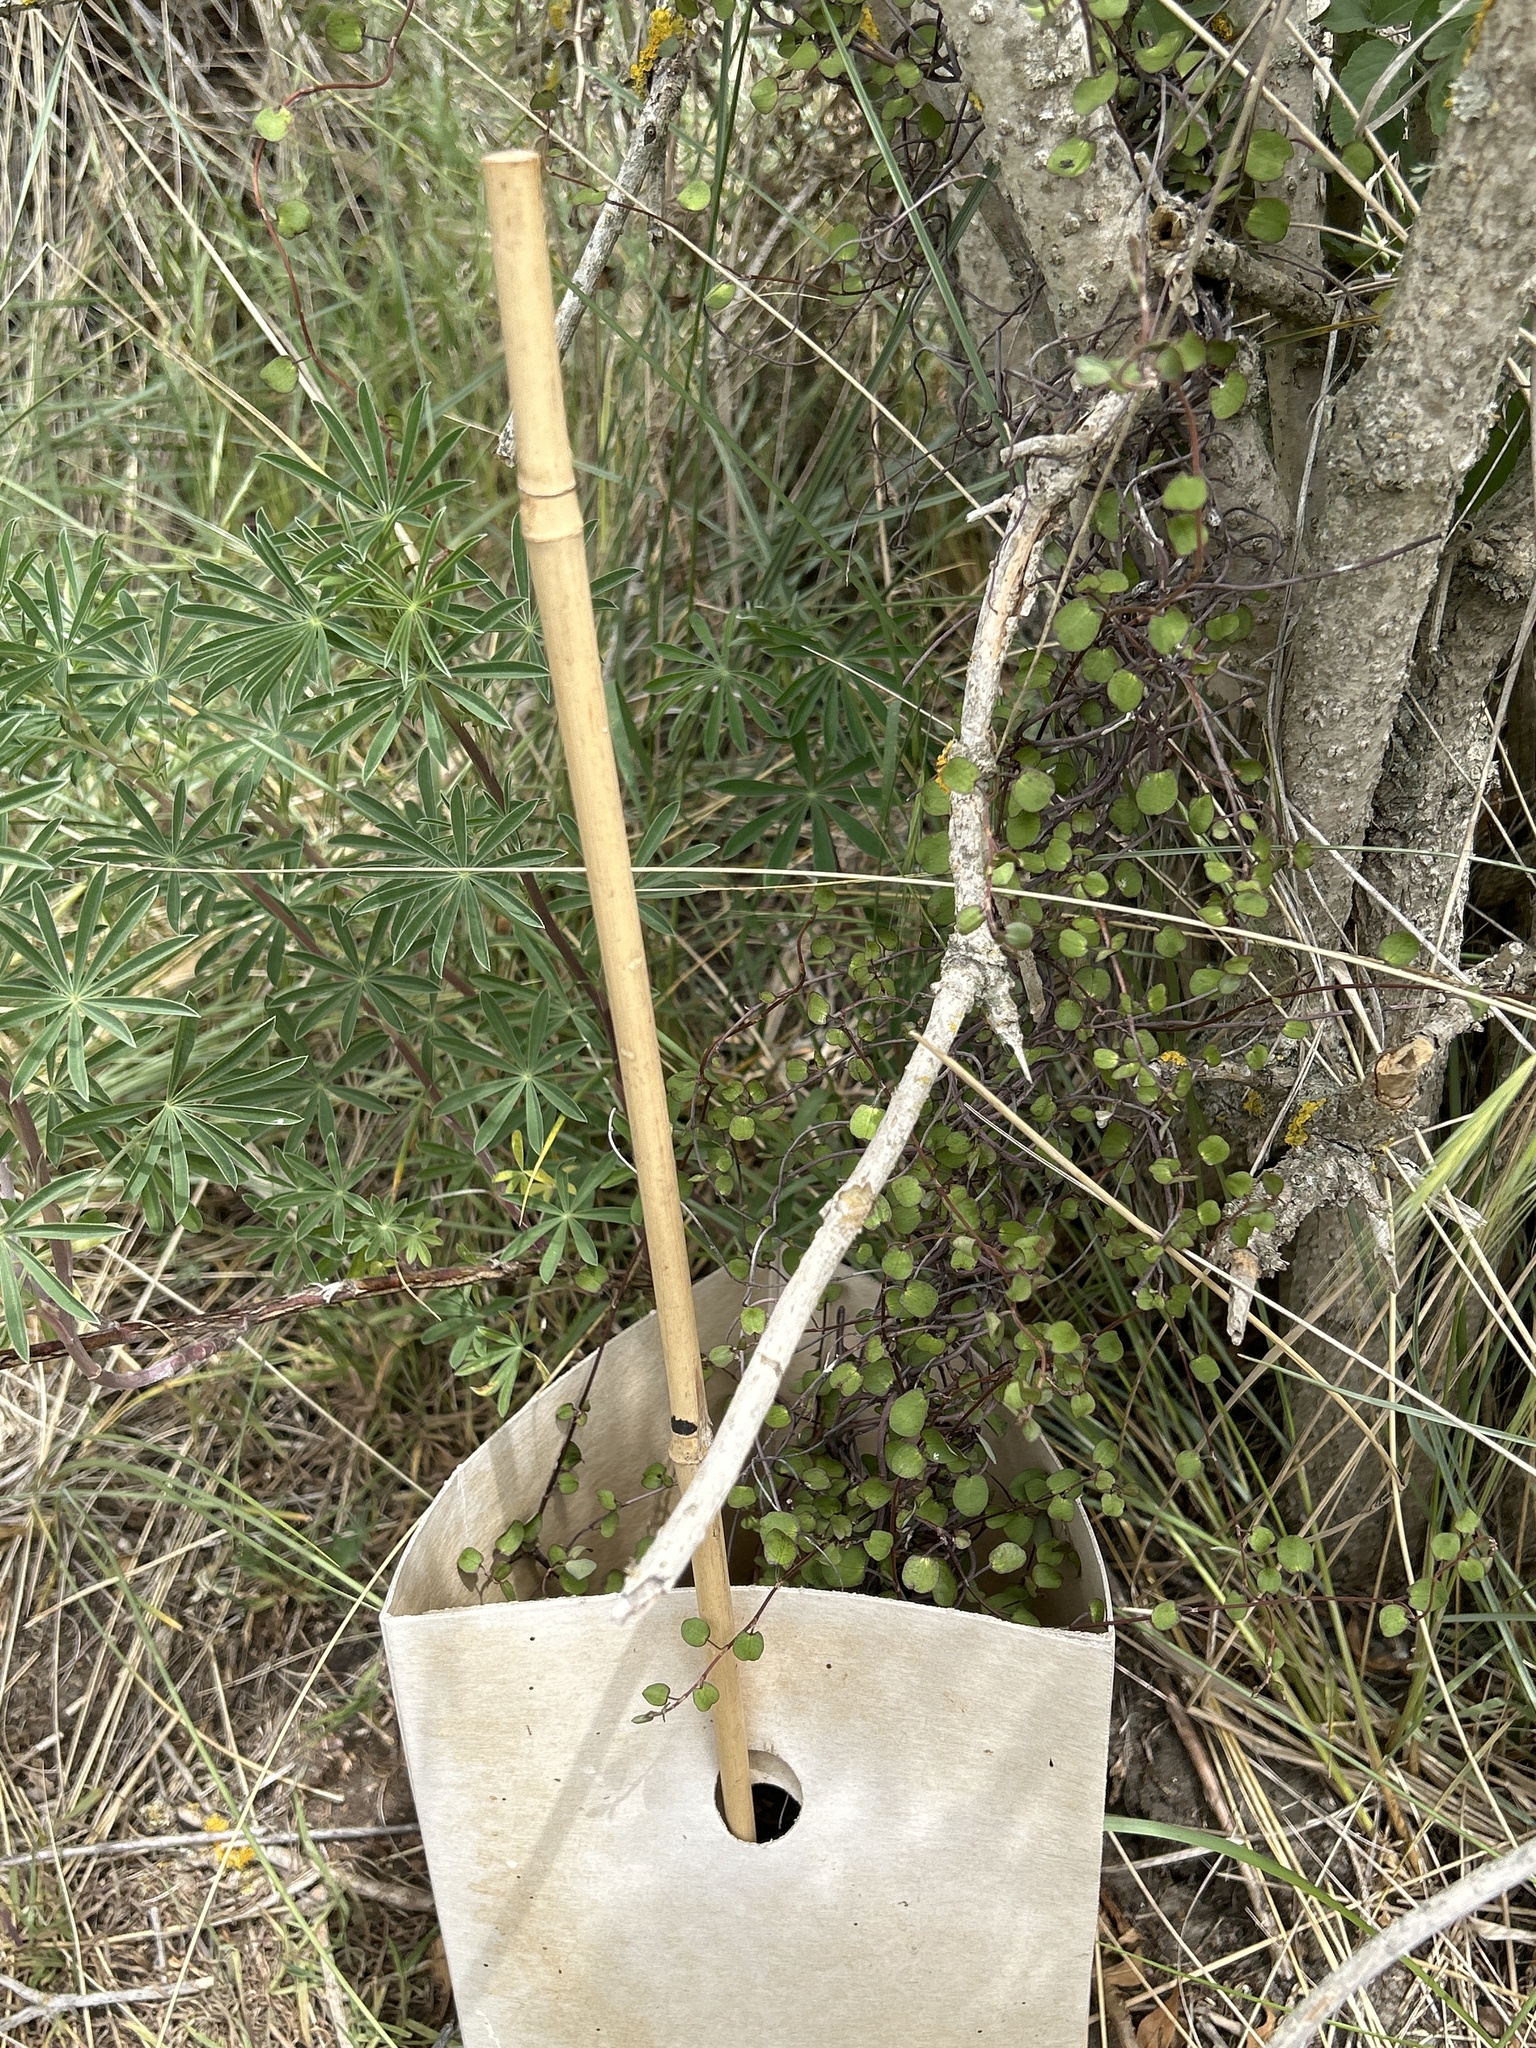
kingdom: Plantae
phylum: Tracheophyta
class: Magnoliopsida
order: Caryophyllales
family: Polygonaceae
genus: Muehlenbeckia
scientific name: Muehlenbeckia complexa
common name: Wireplant
